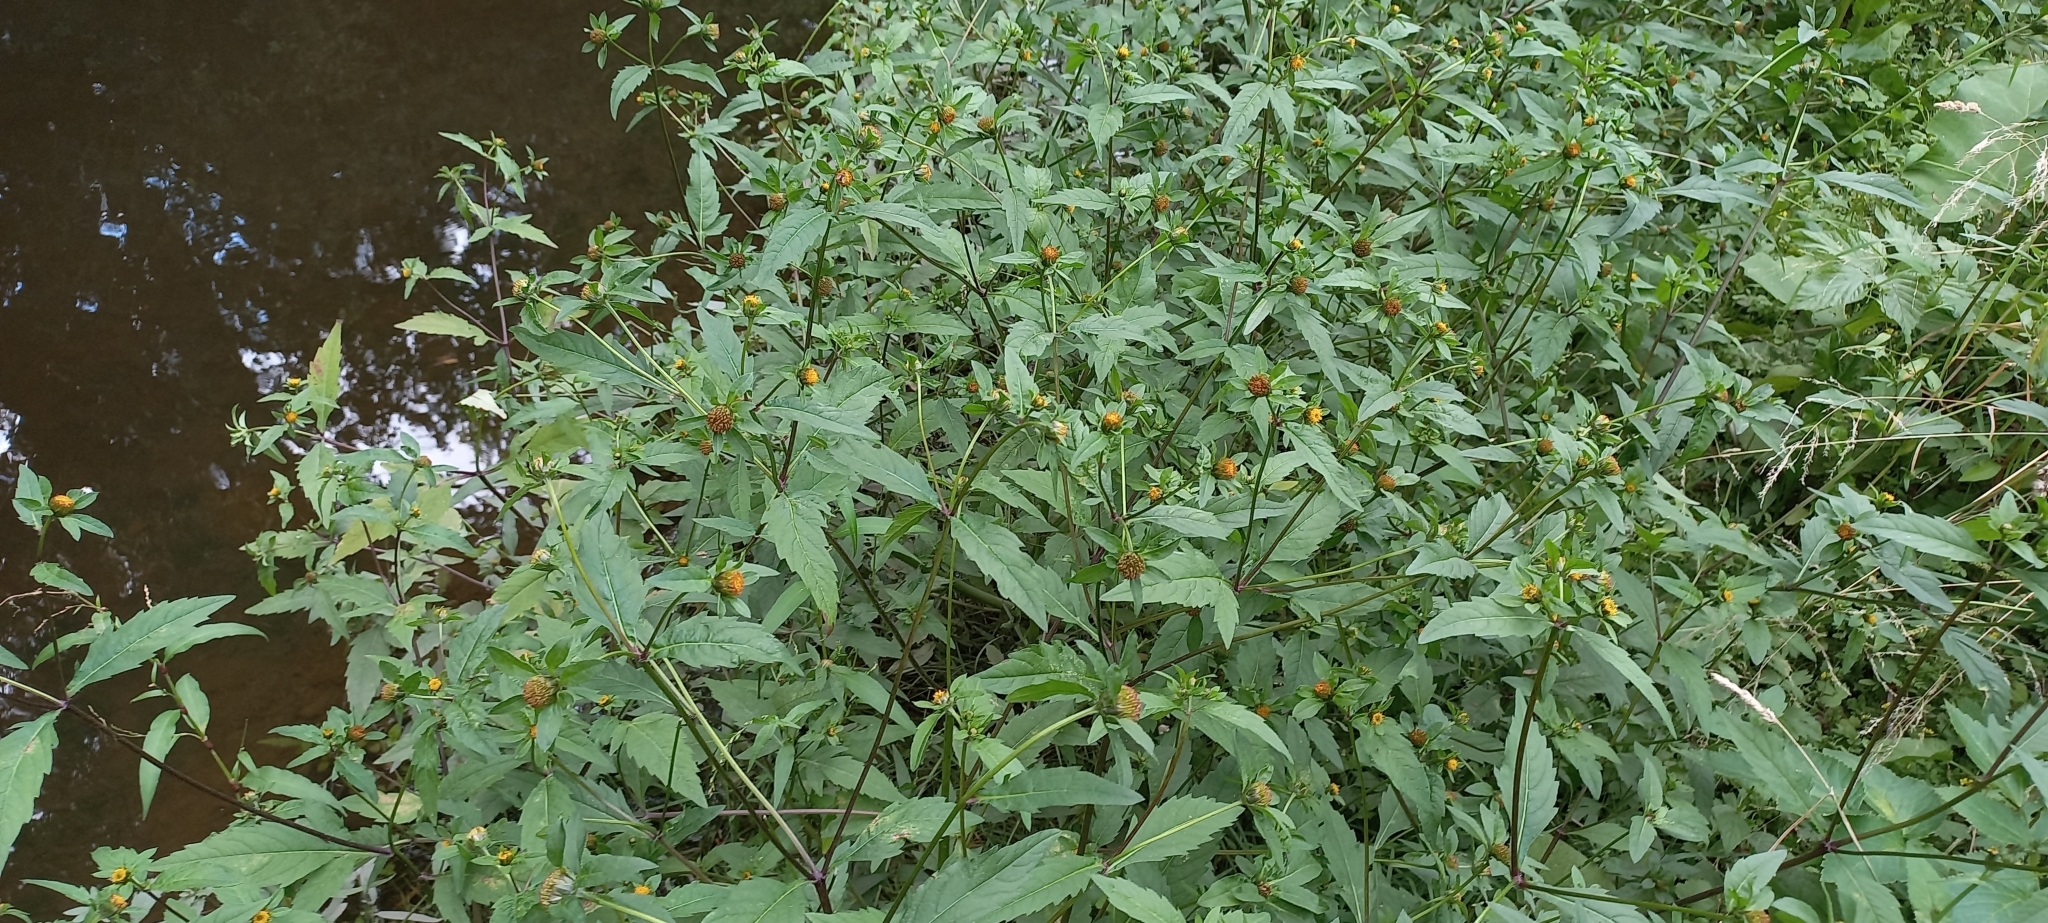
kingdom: Plantae
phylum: Tracheophyta
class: Magnoliopsida
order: Asterales
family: Asteraceae
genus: Bidens
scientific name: Bidens tripartita
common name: Trifid bur-marigold
